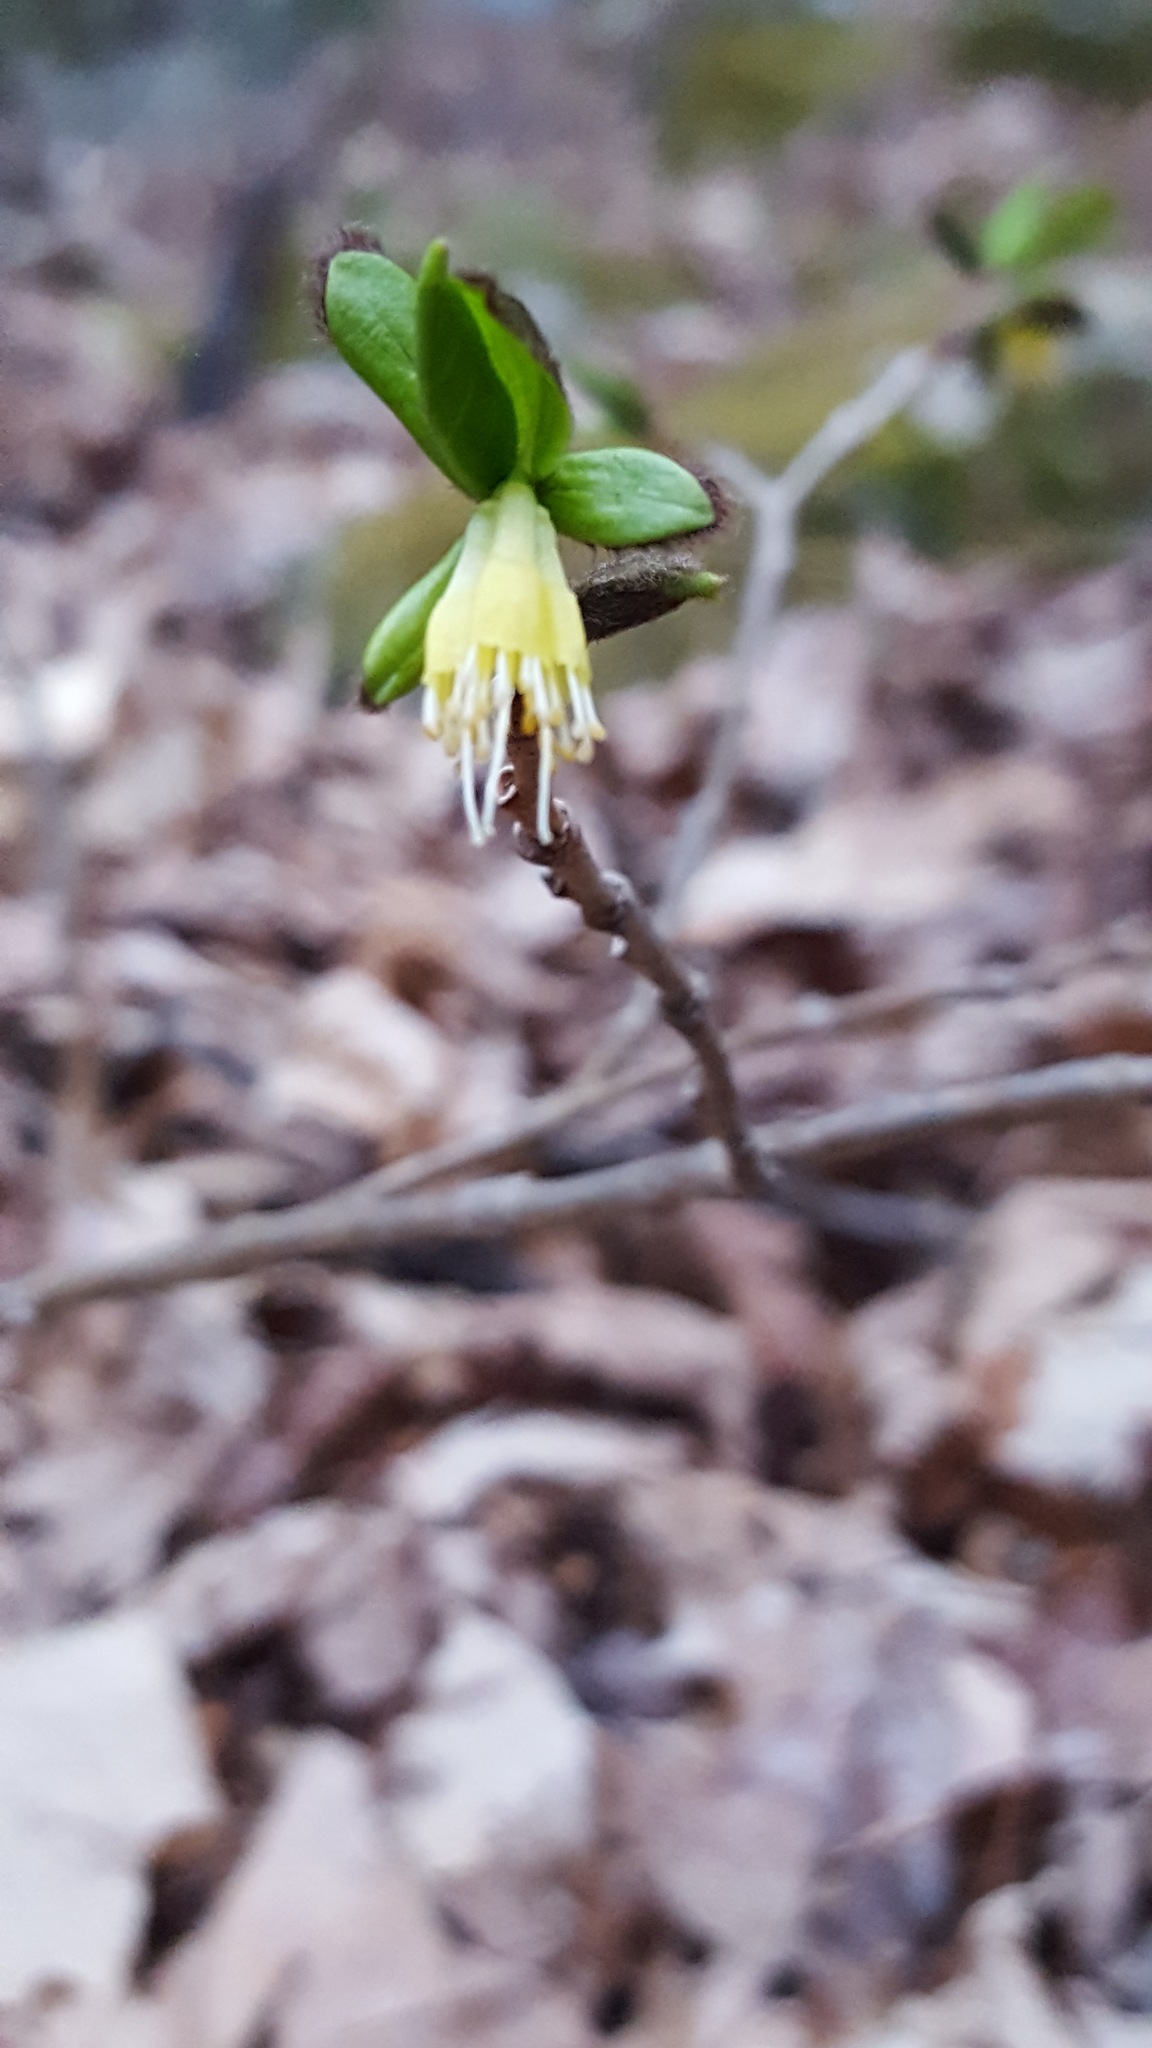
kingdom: Plantae
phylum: Tracheophyta
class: Magnoliopsida
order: Malvales
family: Thymelaeaceae
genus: Dirca
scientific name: Dirca palustris
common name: Leatherwood
